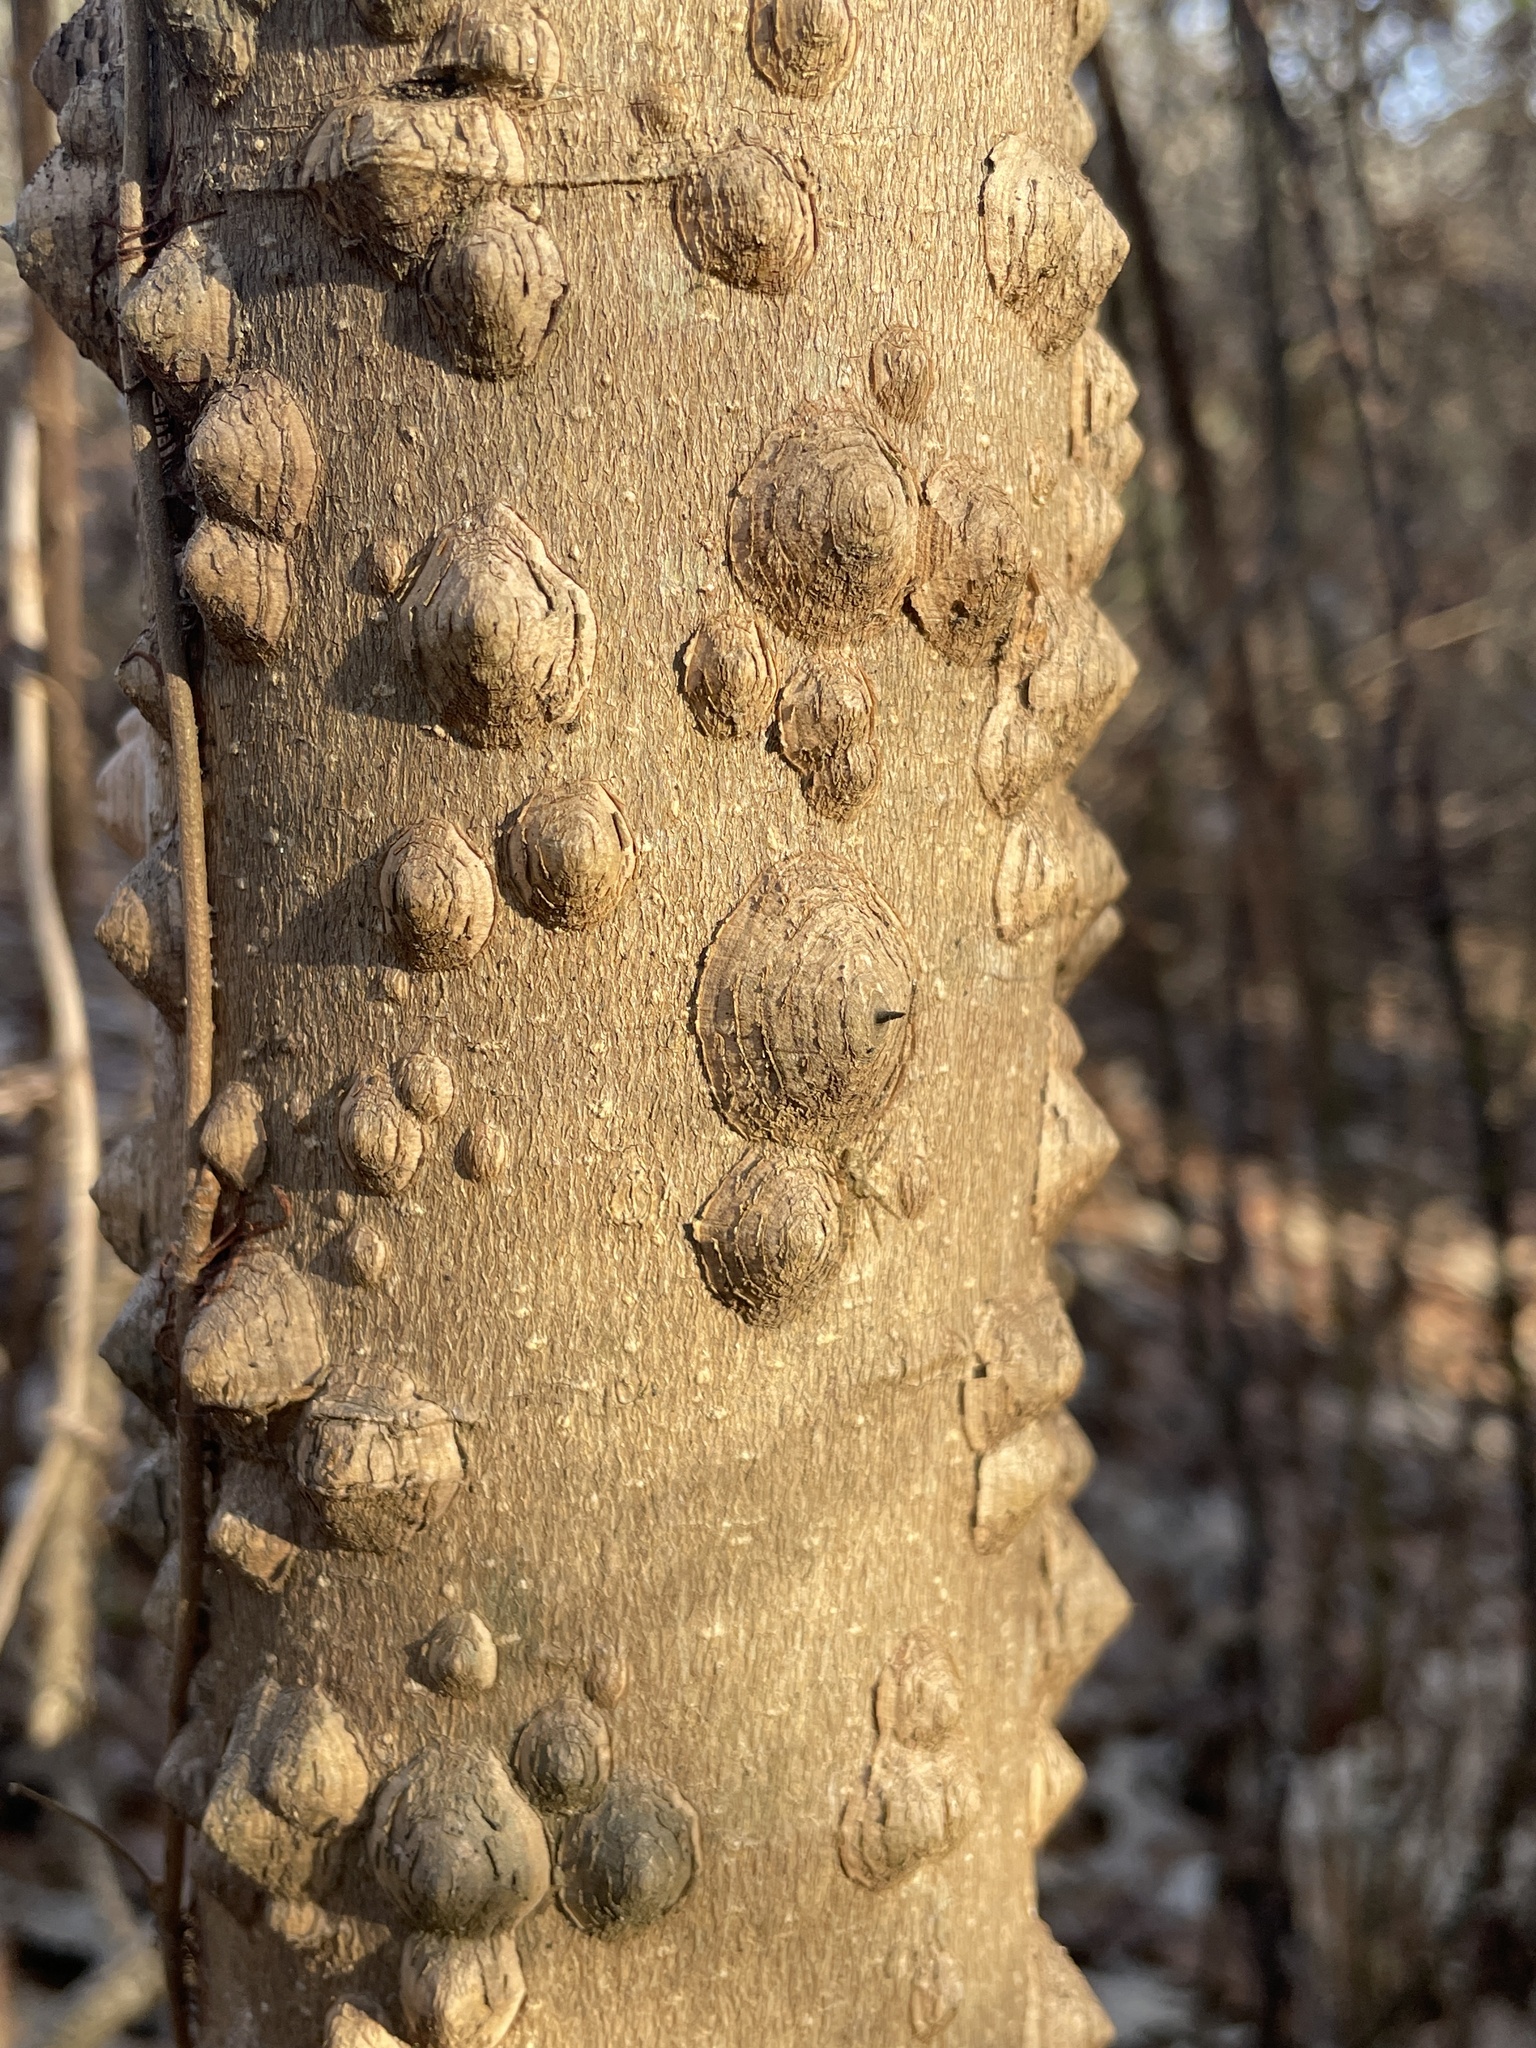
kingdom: Plantae
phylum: Tracheophyta
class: Magnoliopsida
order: Sapindales
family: Rutaceae
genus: Zanthoxylum
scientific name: Zanthoxylum clava-herculis
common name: Hercules'-club
